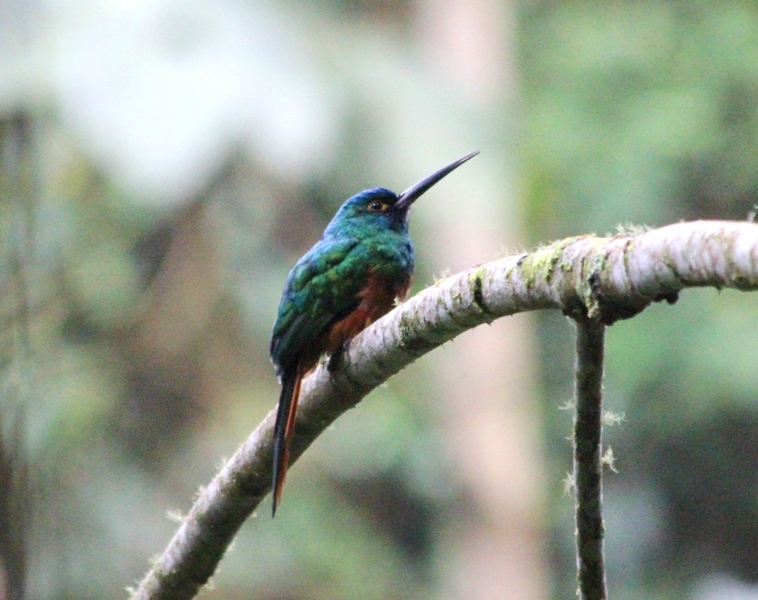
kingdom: Animalia
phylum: Chordata
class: Aves
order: Piciformes
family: Galbulidae
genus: Galbula
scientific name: Galbula pastazae
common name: Coppery-chested jacamar
